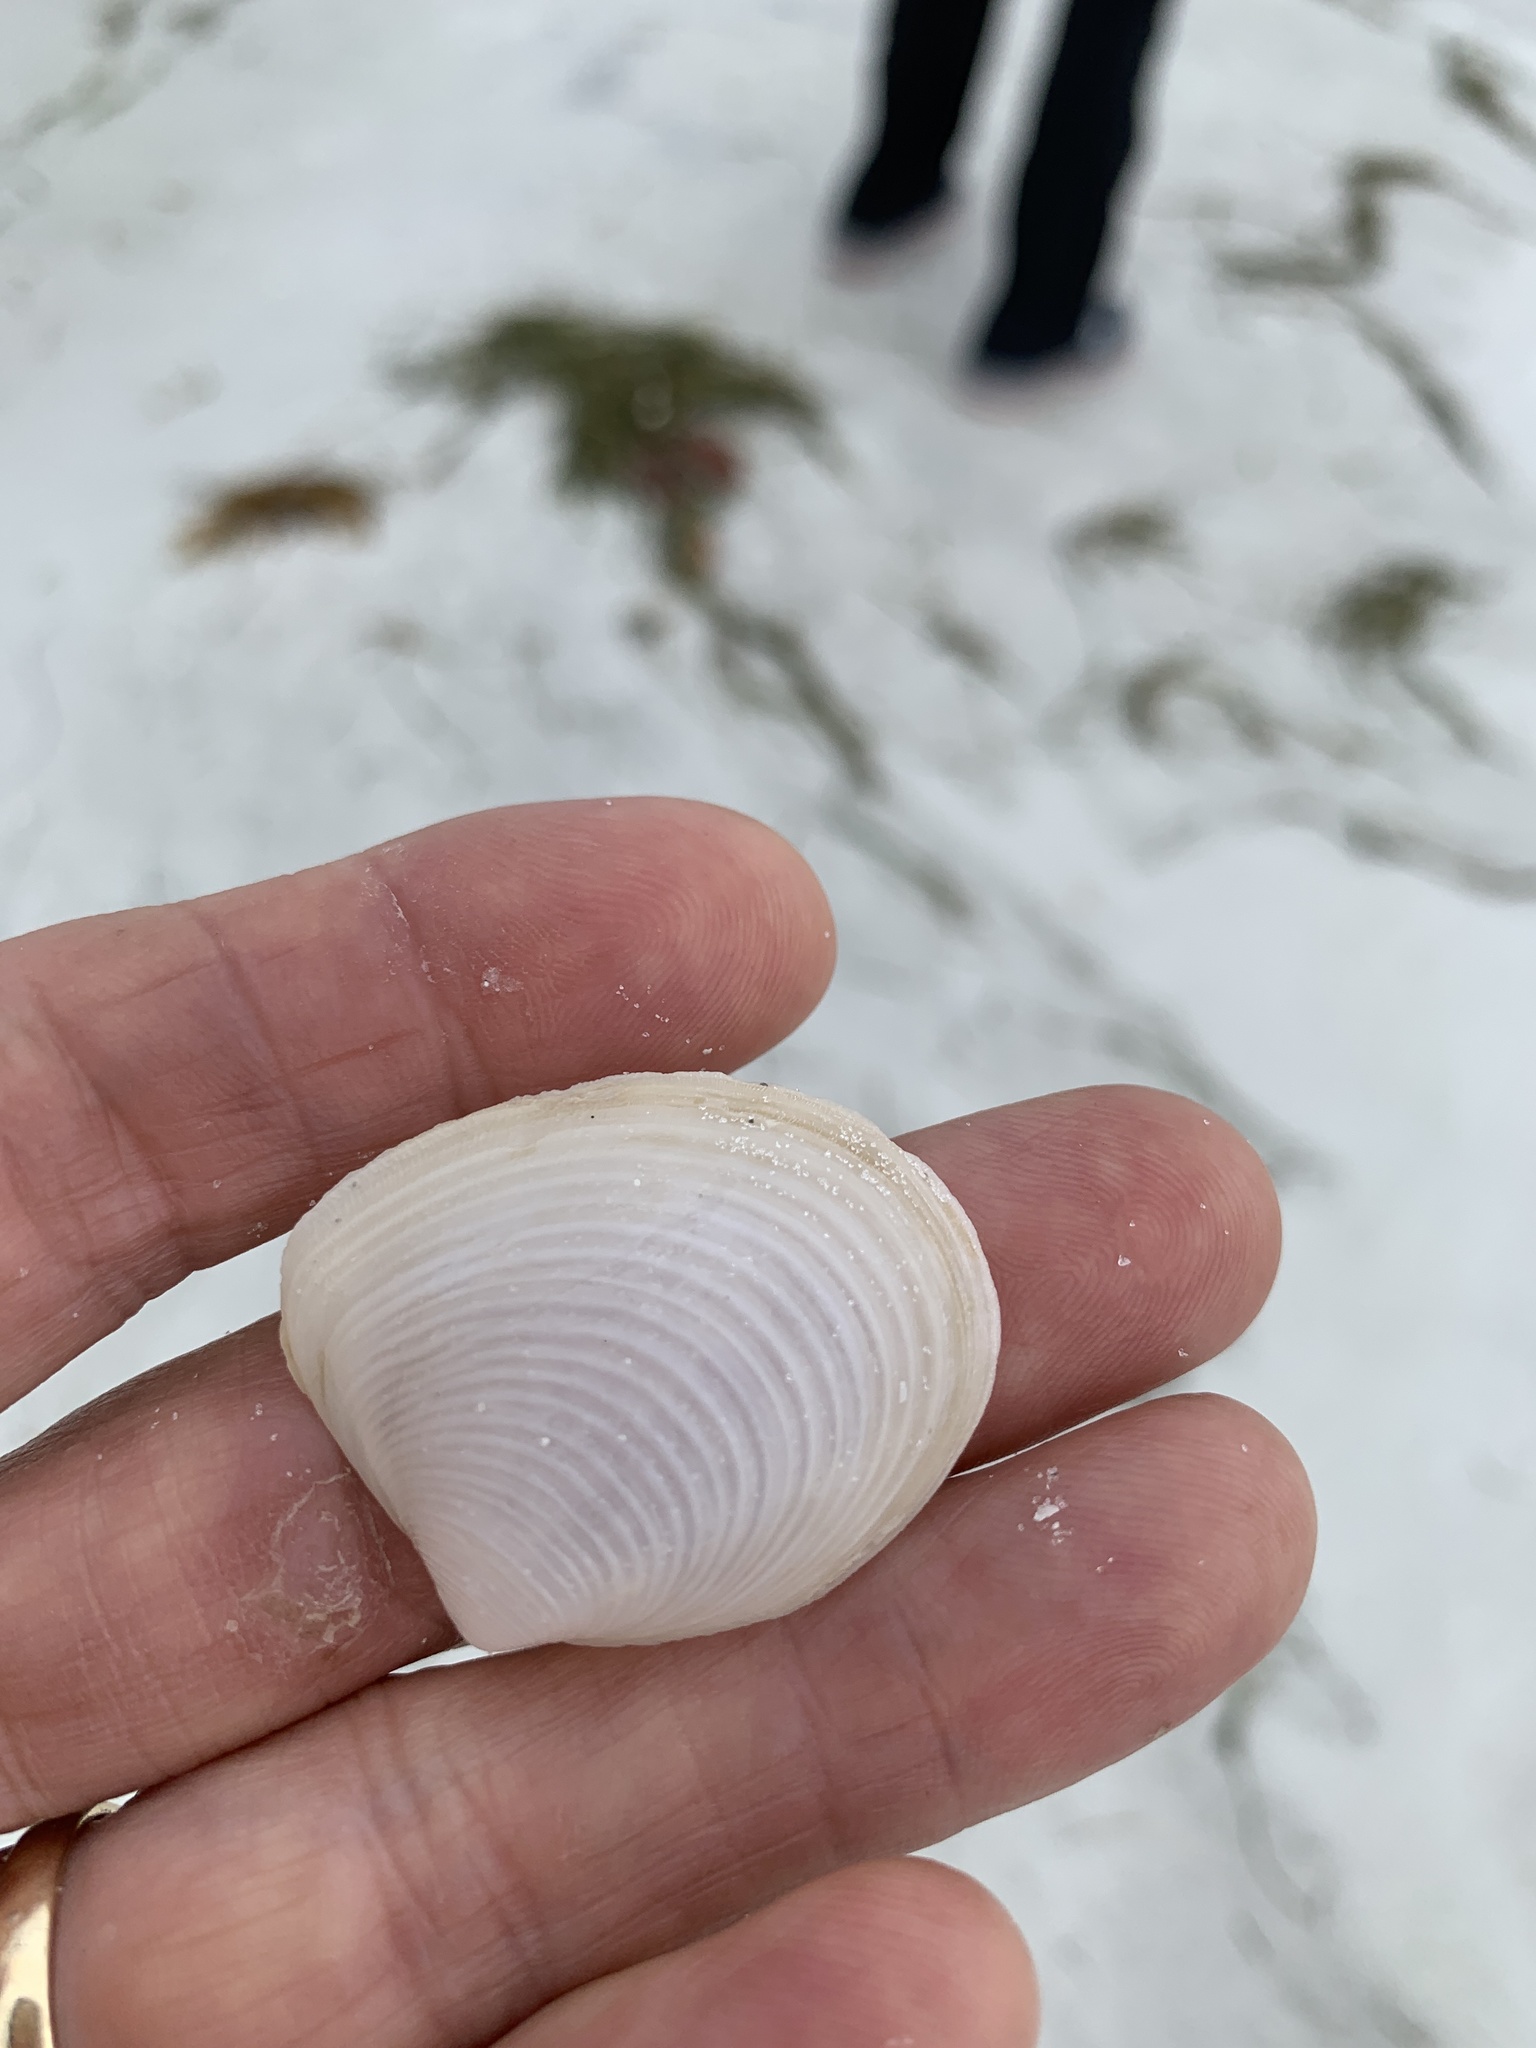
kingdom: Animalia
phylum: Mollusca
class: Bivalvia
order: Venerida
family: Anatinellidae
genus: Raeta
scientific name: Raeta plicatella
